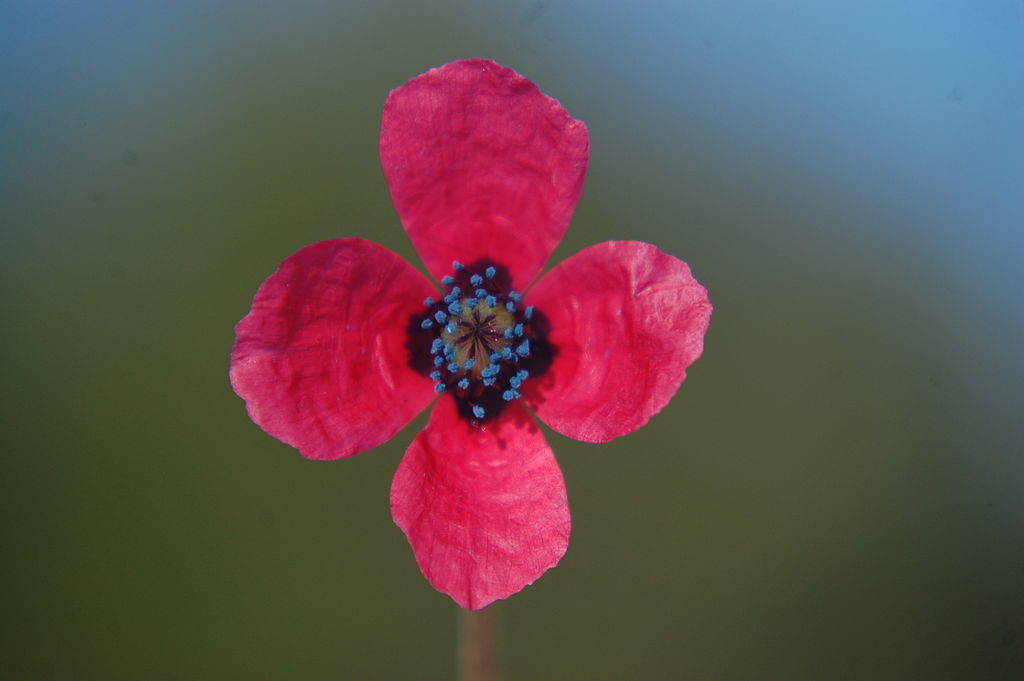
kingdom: Plantae
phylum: Tracheophyta
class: Magnoliopsida
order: Ranunculales
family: Papaveraceae
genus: Roemeria
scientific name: Roemeria hispida
